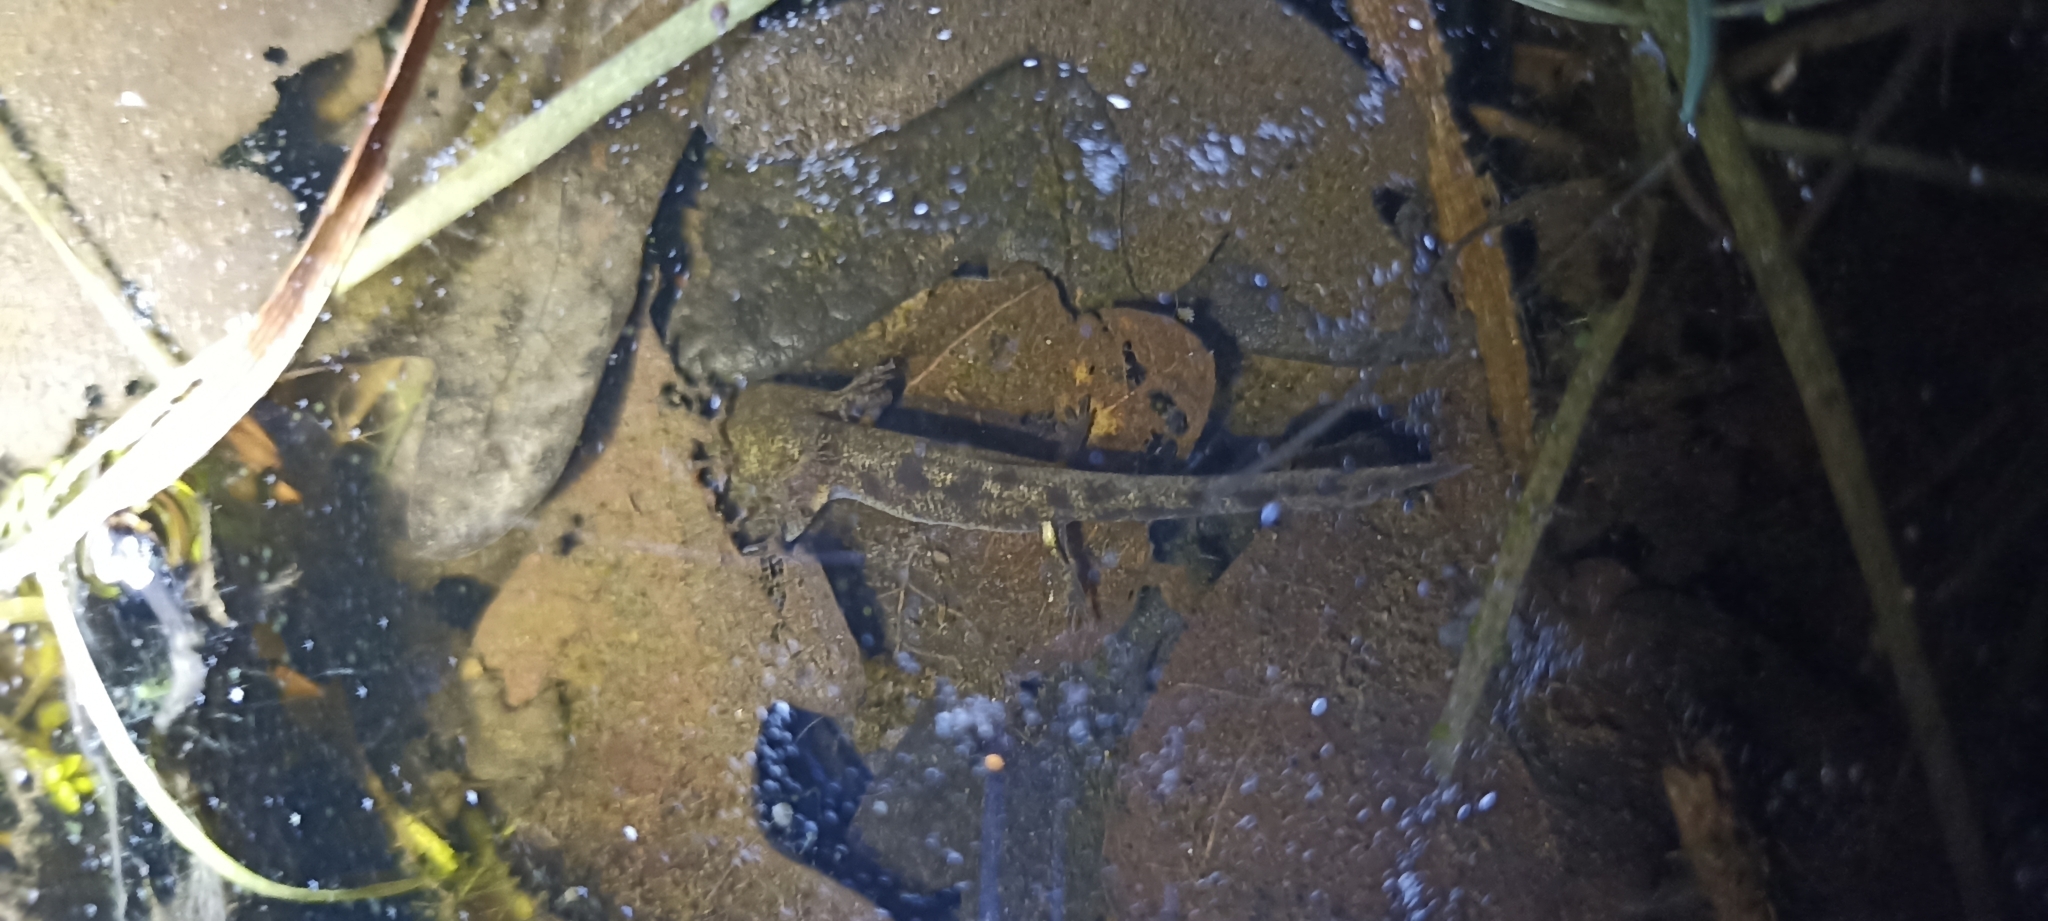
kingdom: Animalia
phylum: Chordata
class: Amphibia
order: Caudata
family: Salamandridae
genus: Salamandra
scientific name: Salamandra salamandra
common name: Fire salamander
